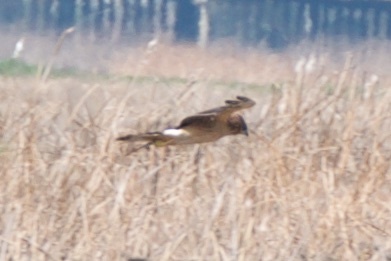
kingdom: Animalia
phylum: Chordata
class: Aves
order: Accipitriformes
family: Accipitridae
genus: Circus
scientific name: Circus cyaneus
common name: Hen harrier
